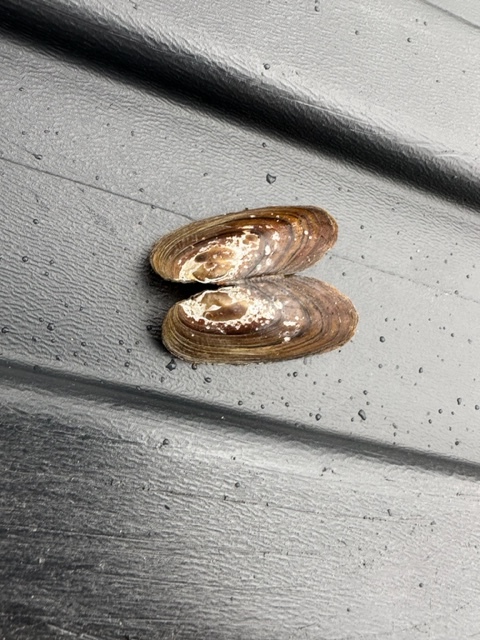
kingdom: Animalia
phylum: Mollusca
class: Bivalvia
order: Unionida
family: Unionidae
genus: Elliptio
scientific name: Elliptio complanata
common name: Eastern elliptio
